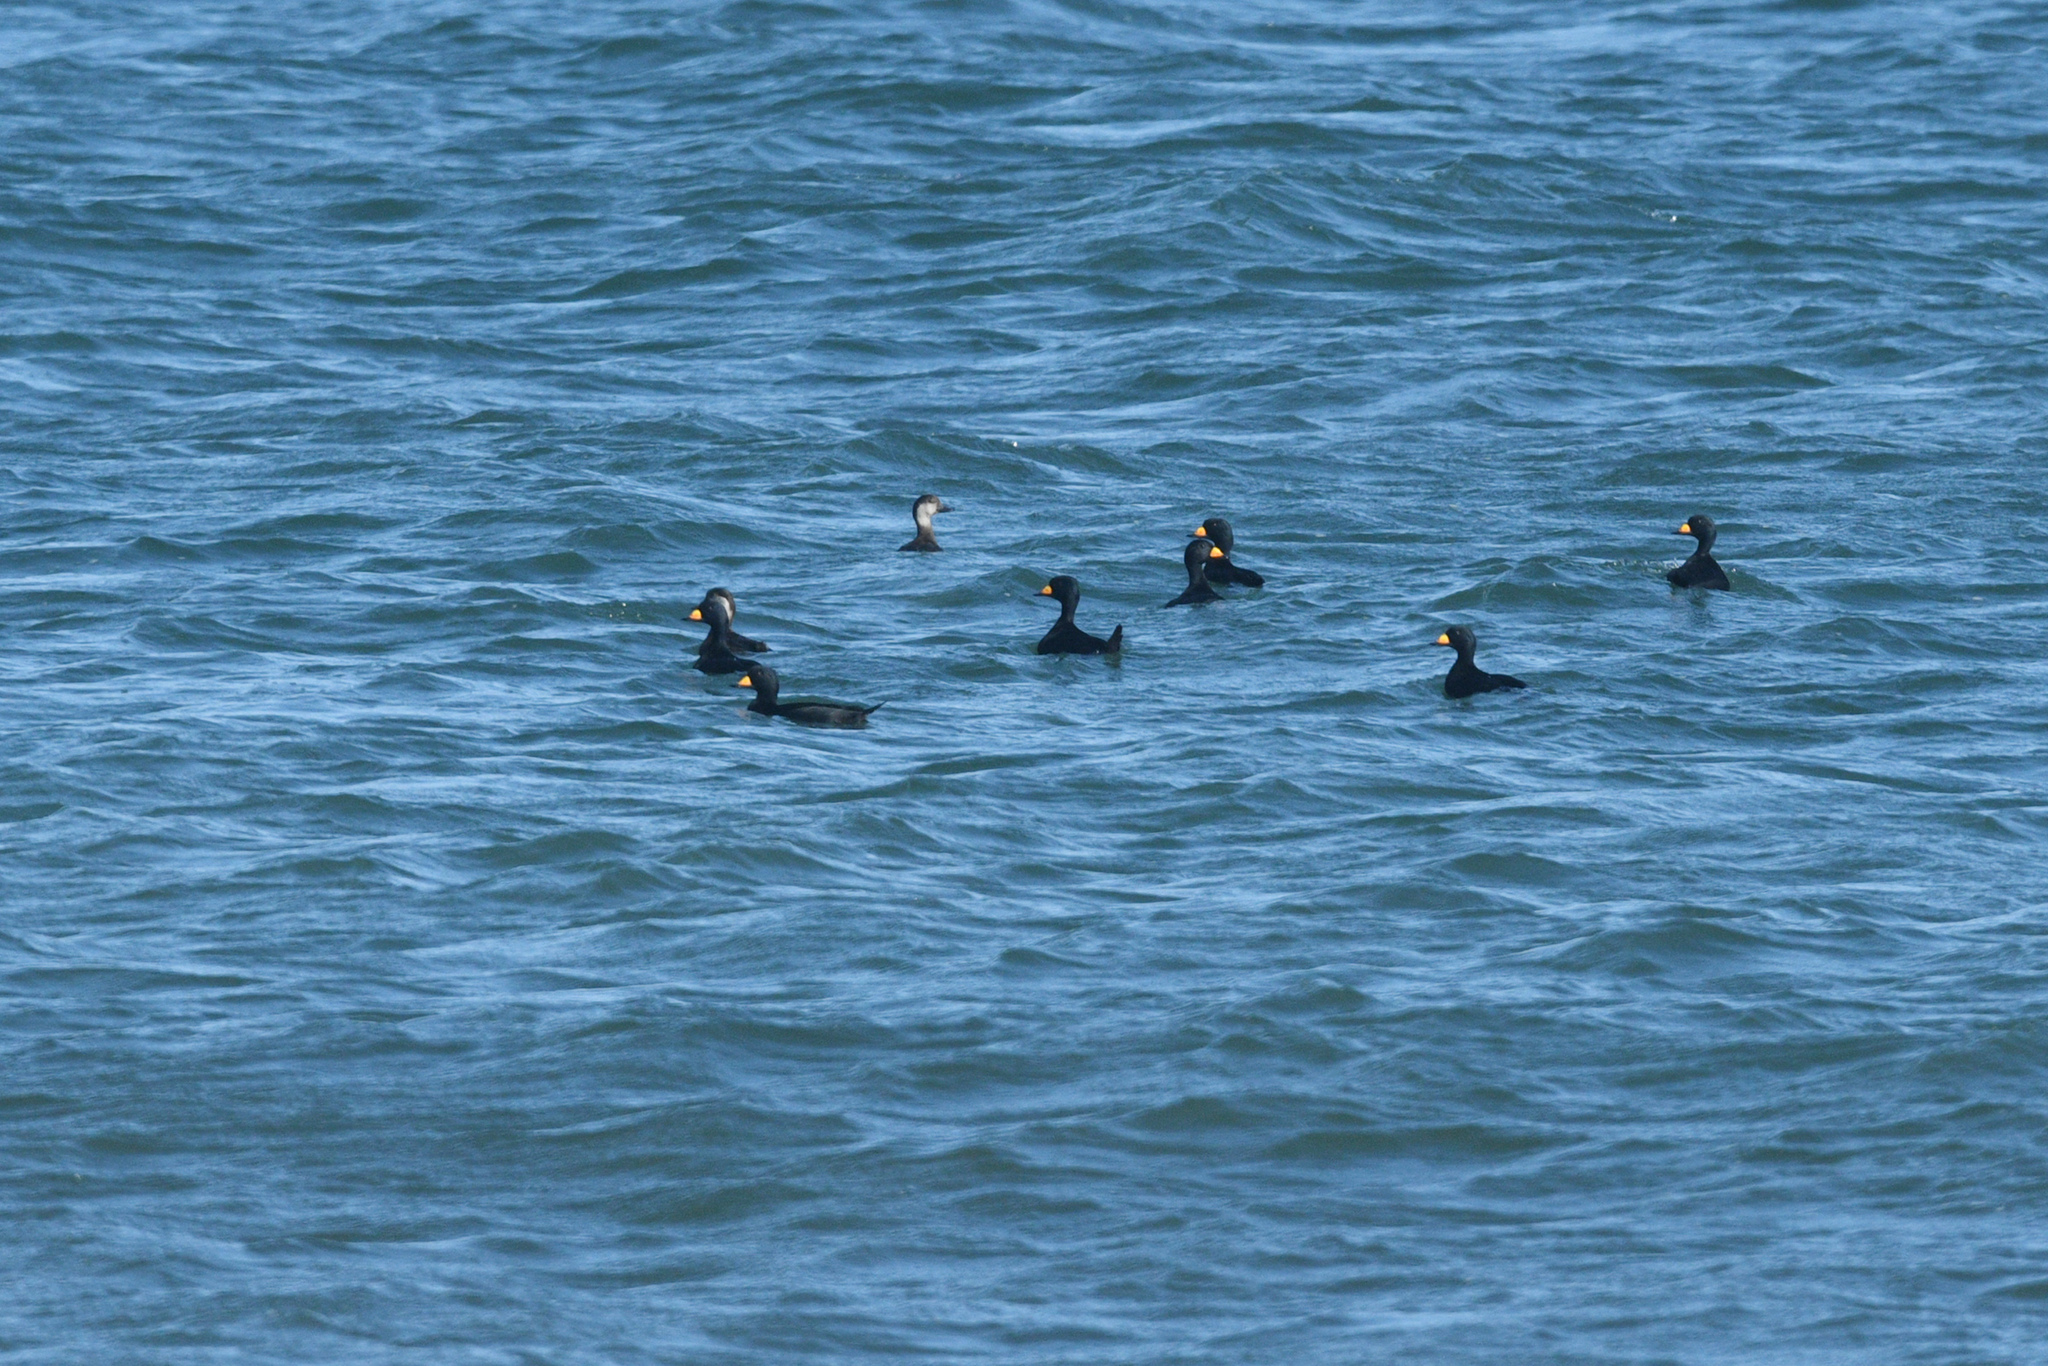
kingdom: Animalia
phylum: Chordata
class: Aves
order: Anseriformes
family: Anatidae
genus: Melanitta
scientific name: Melanitta americana
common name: Black scoter
